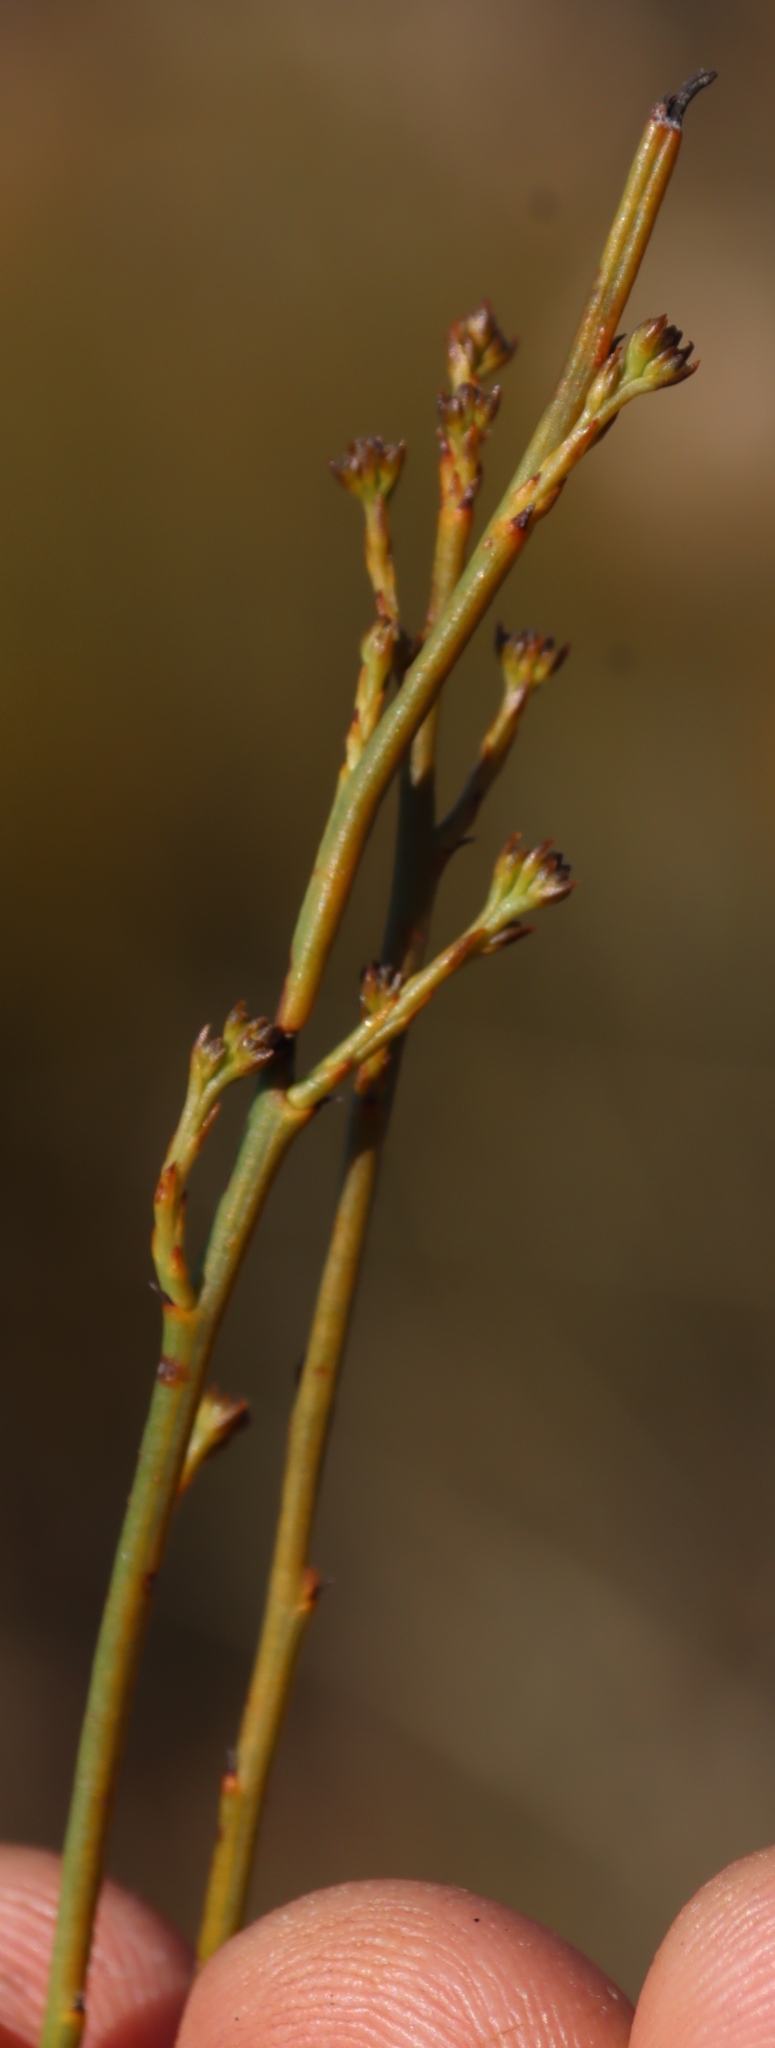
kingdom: Plantae
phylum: Tracheophyta
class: Magnoliopsida
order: Santalales
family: Thesiaceae
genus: Thesium
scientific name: Thesium aggregatum
